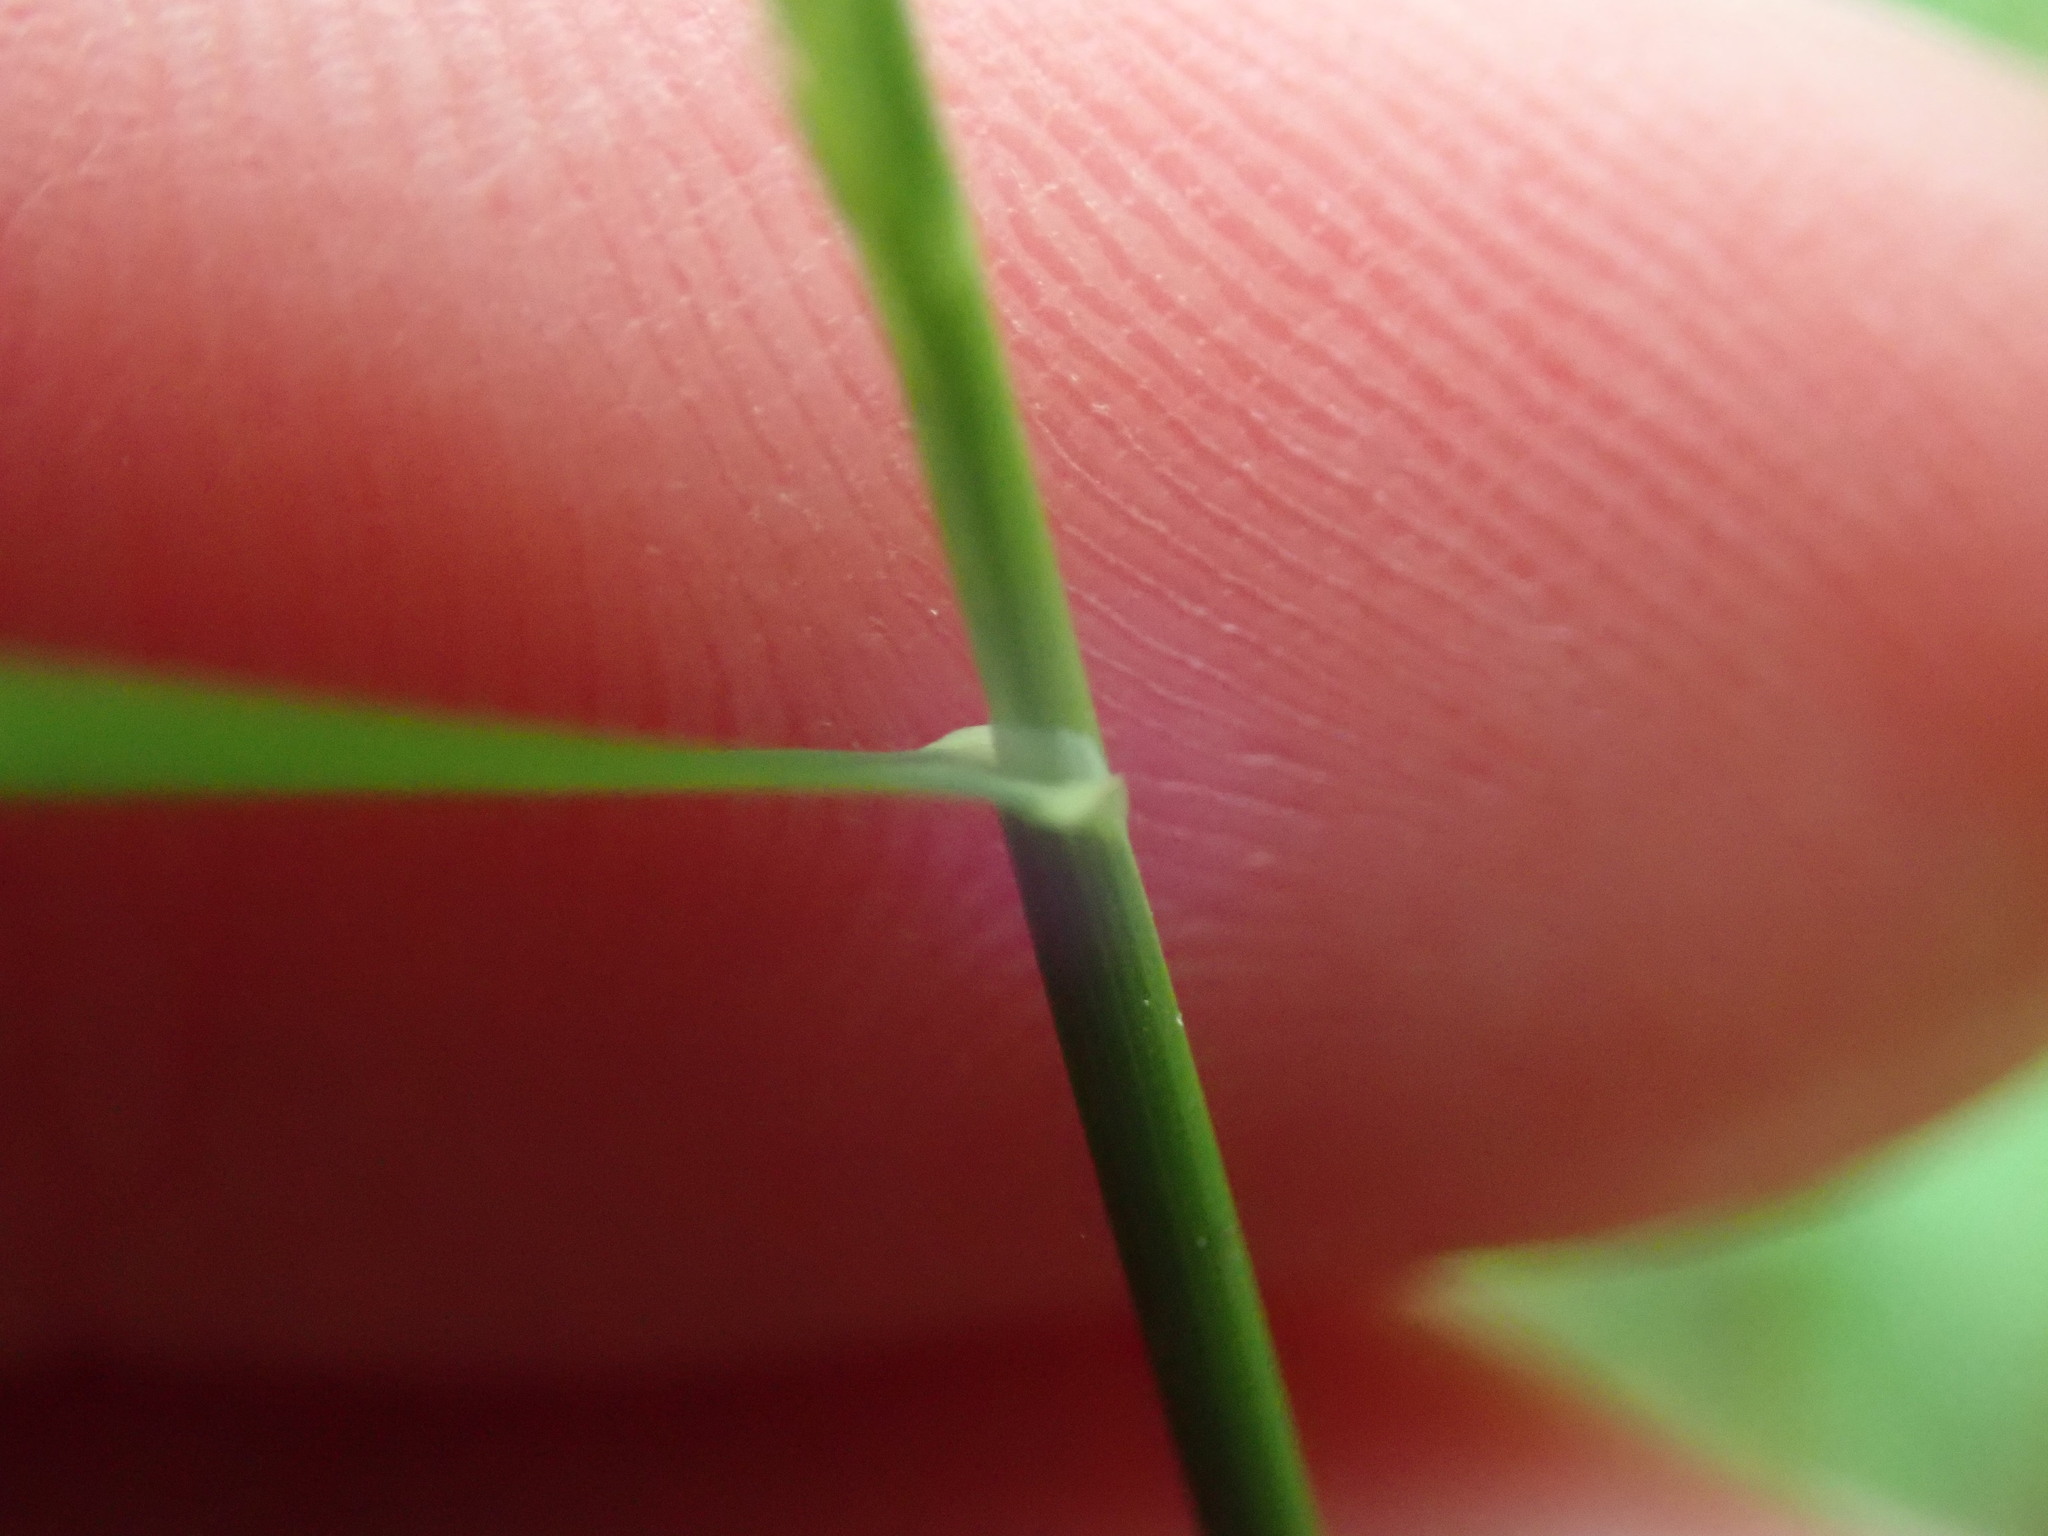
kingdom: Plantae
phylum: Tracheophyta
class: Liliopsida
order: Poales
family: Poaceae
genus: Poa
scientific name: Poa nemoralis
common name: Wood bluegrass
